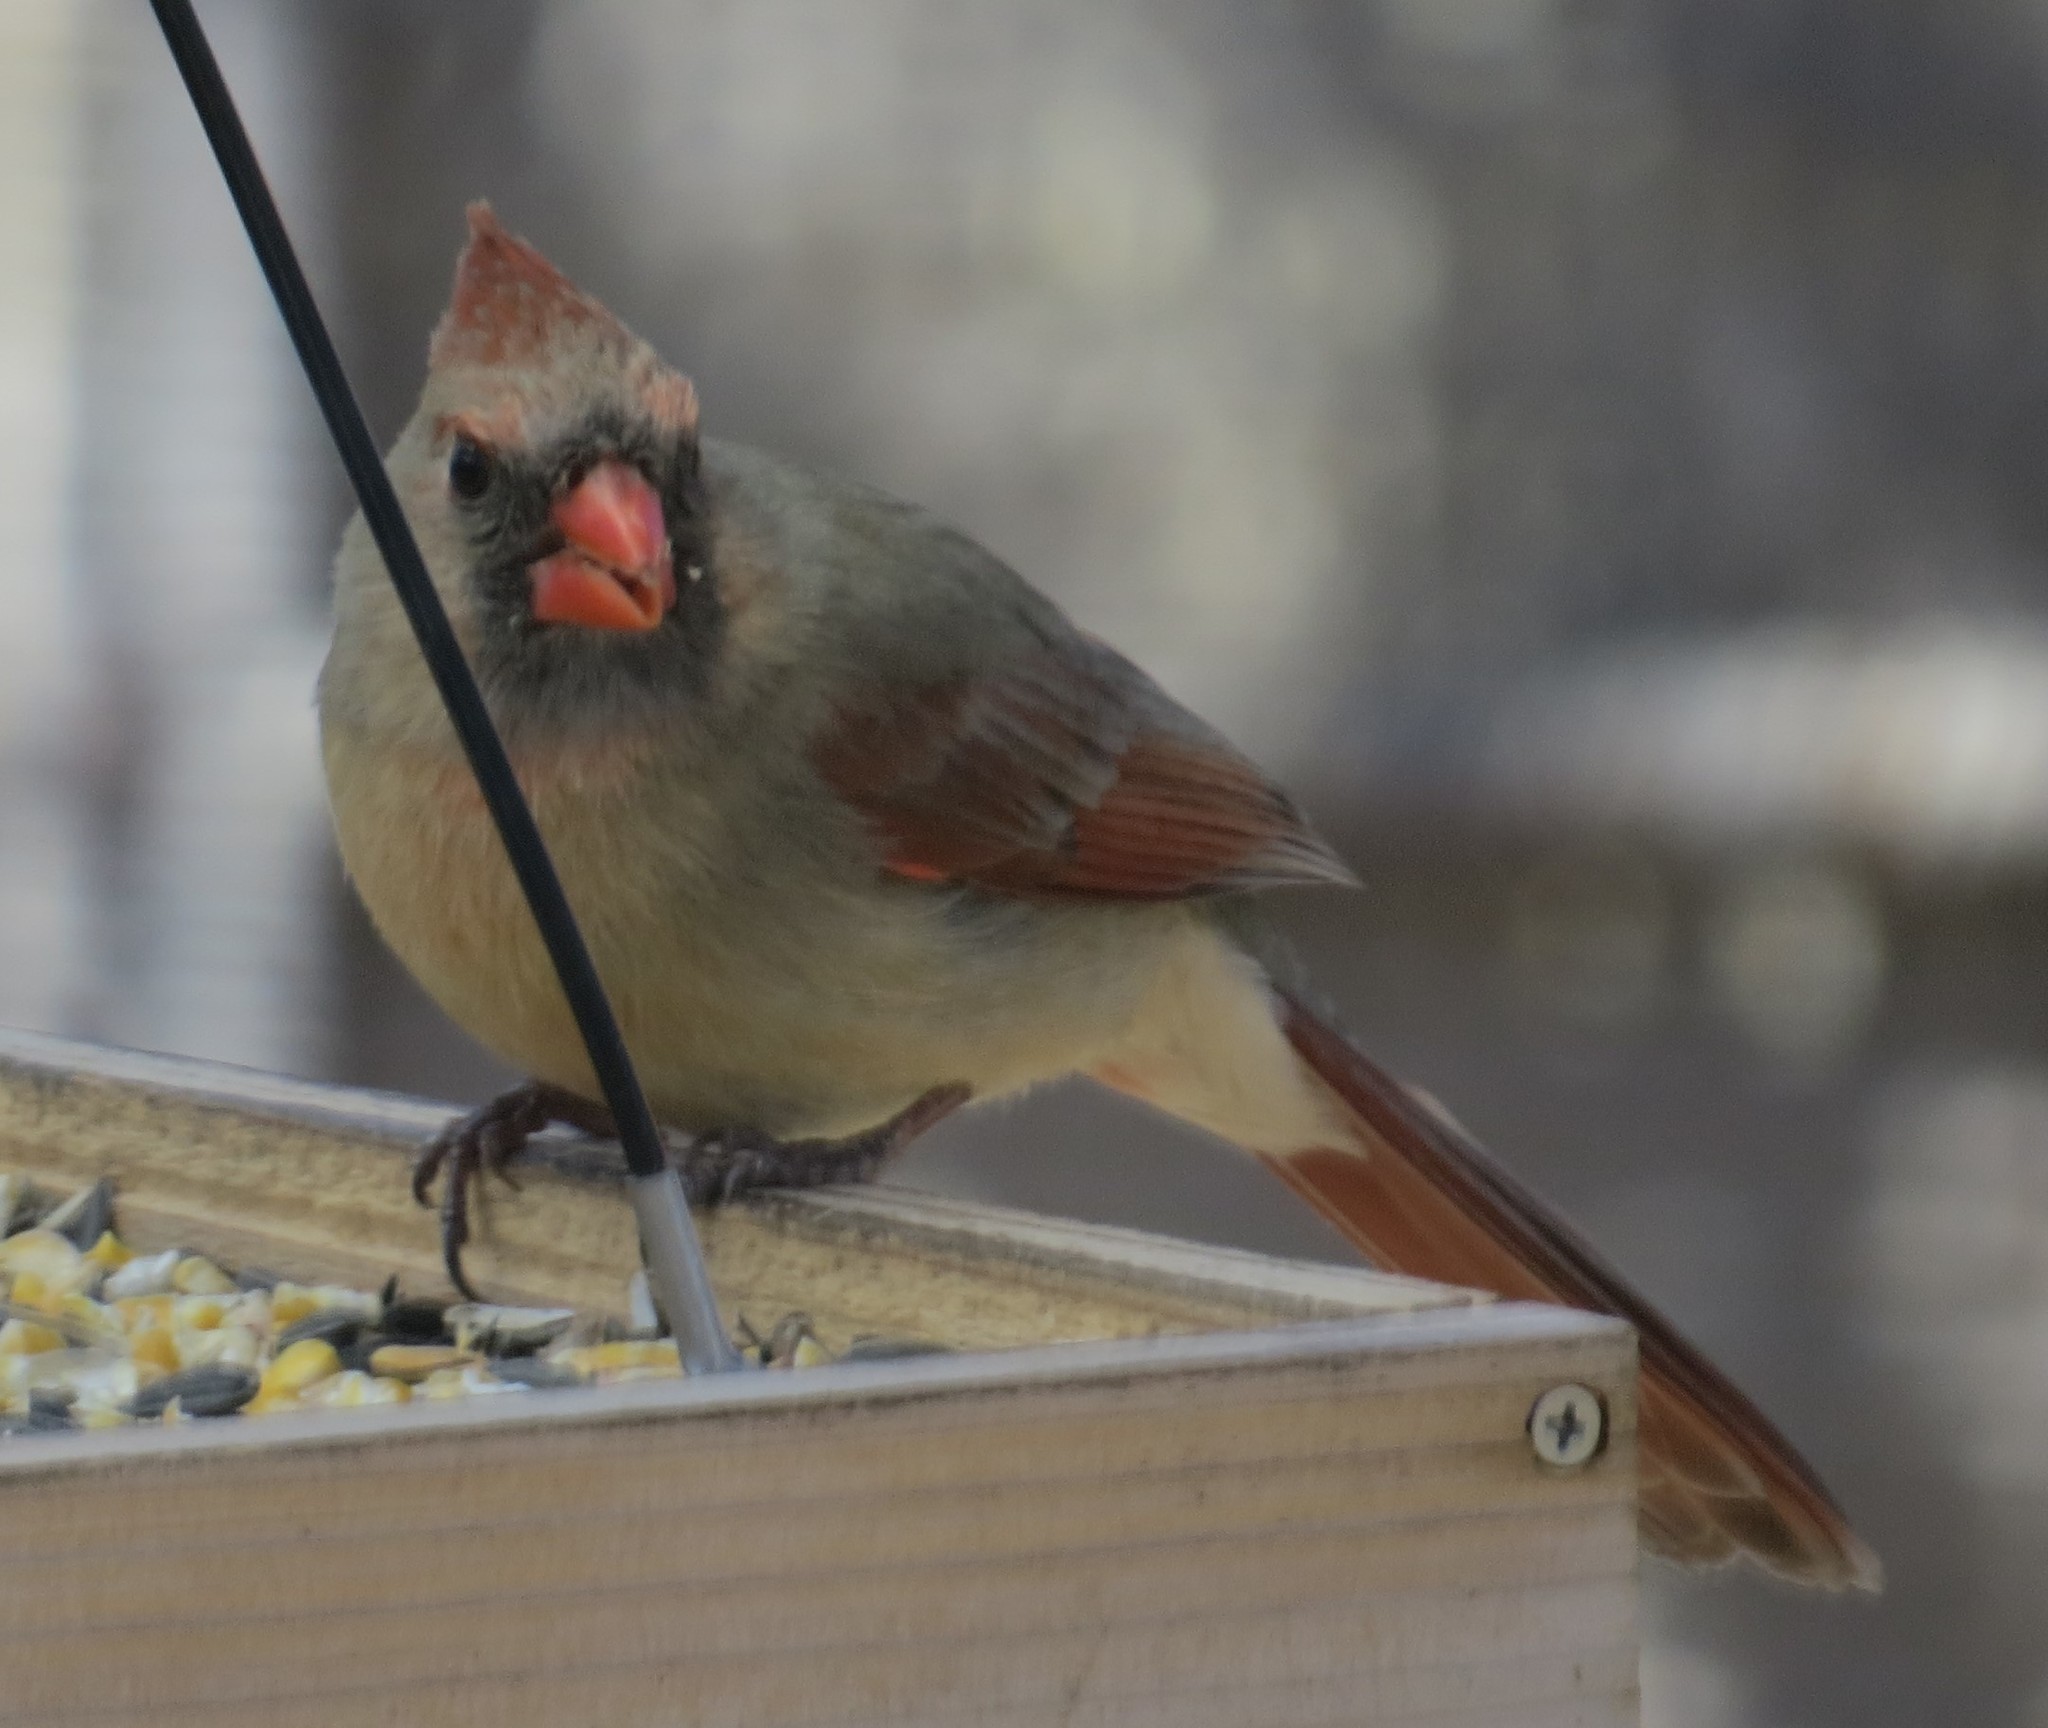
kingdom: Animalia
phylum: Chordata
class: Aves
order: Passeriformes
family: Cardinalidae
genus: Cardinalis
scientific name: Cardinalis cardinalis
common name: Northern cardinal
